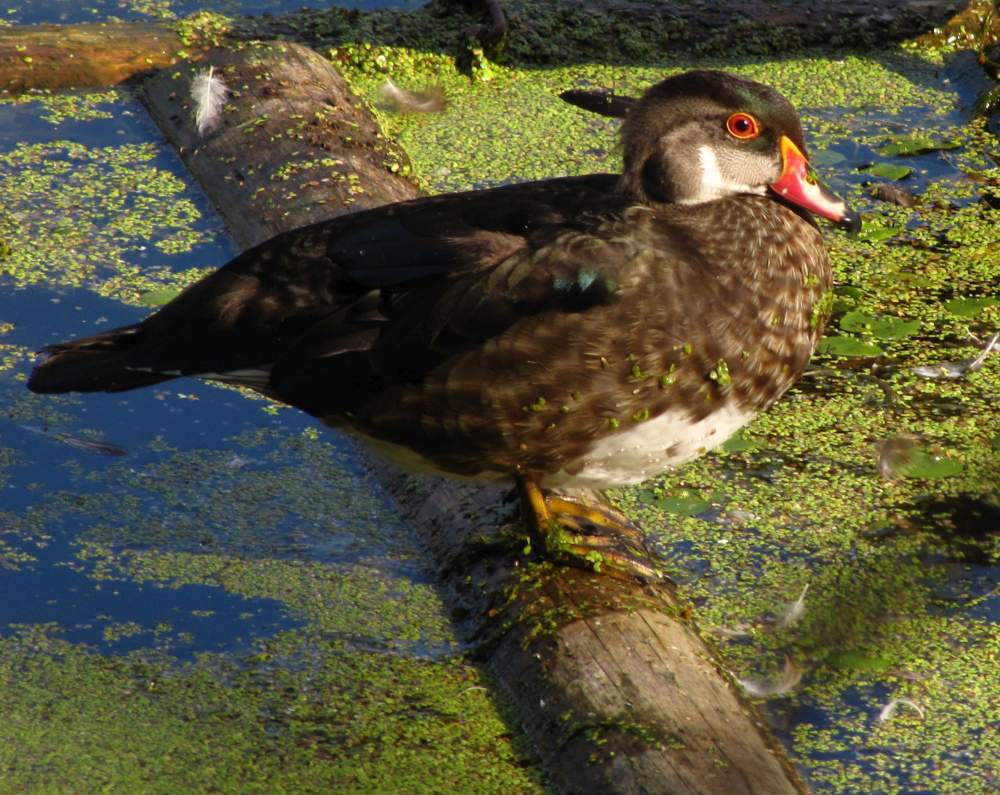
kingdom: Animalia
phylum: Chordata
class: Aves
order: Anseriformes
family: Anatidae
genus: Aix
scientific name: Aix sponsa
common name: Wood duck
